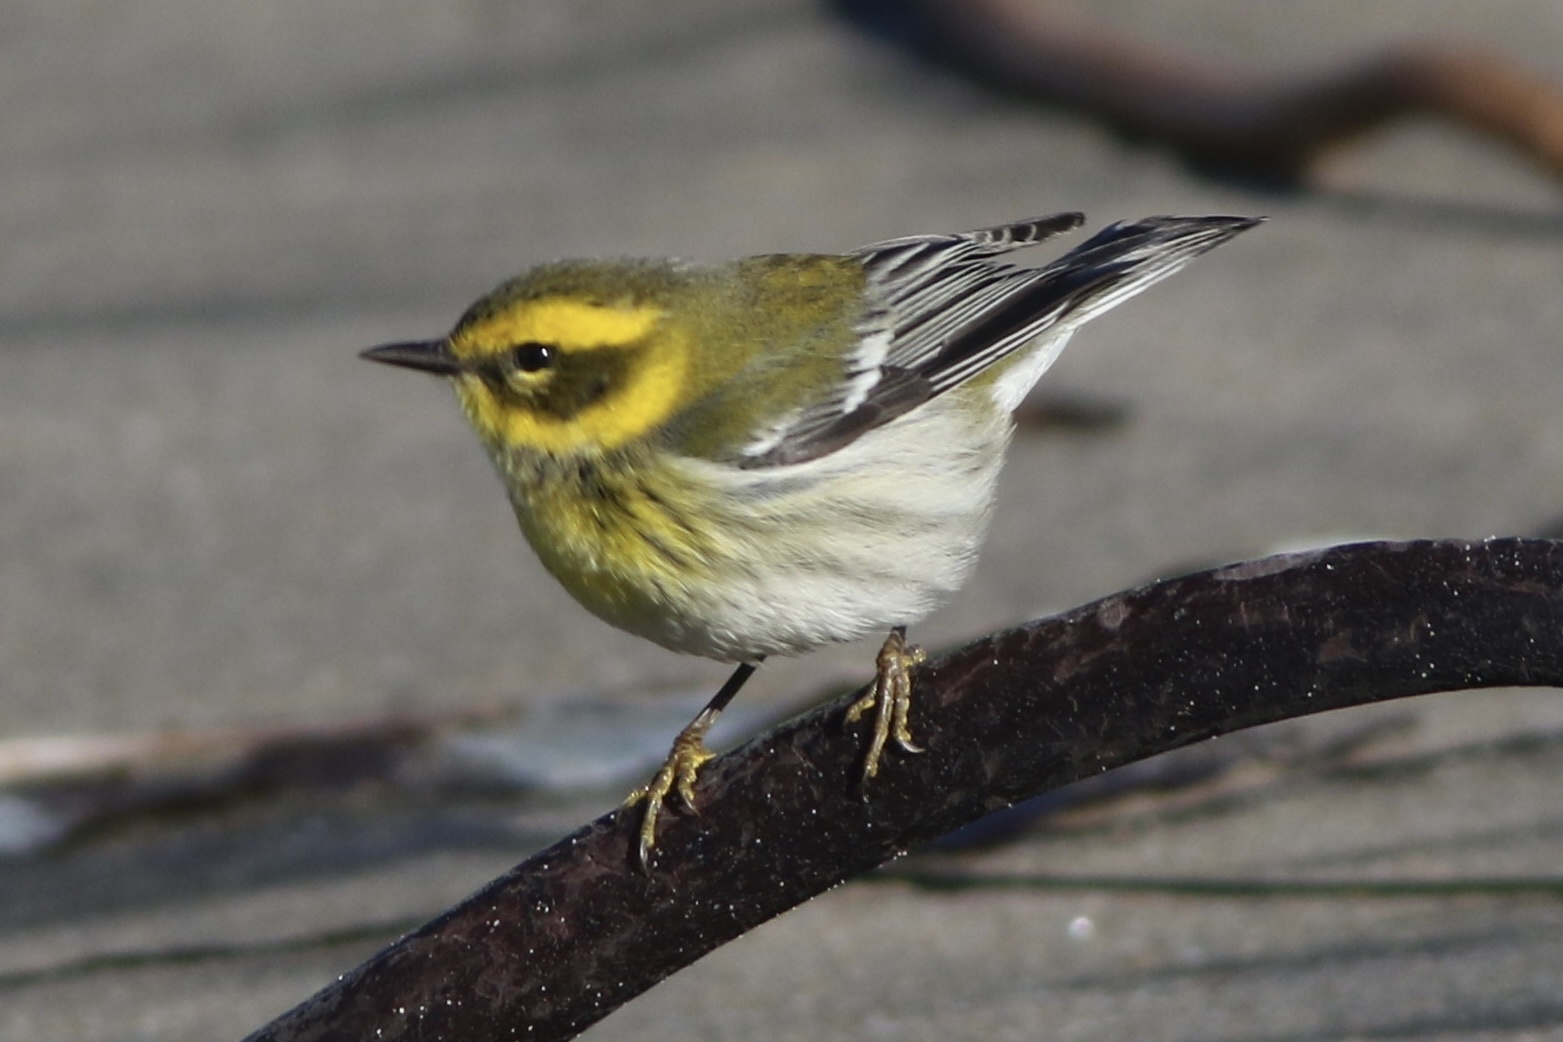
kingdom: Animalia
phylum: Chordata
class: Aves
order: Passeriformes
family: Parulidae
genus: Setophaga
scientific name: Setophaga townsendi
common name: Townsend's warbler
